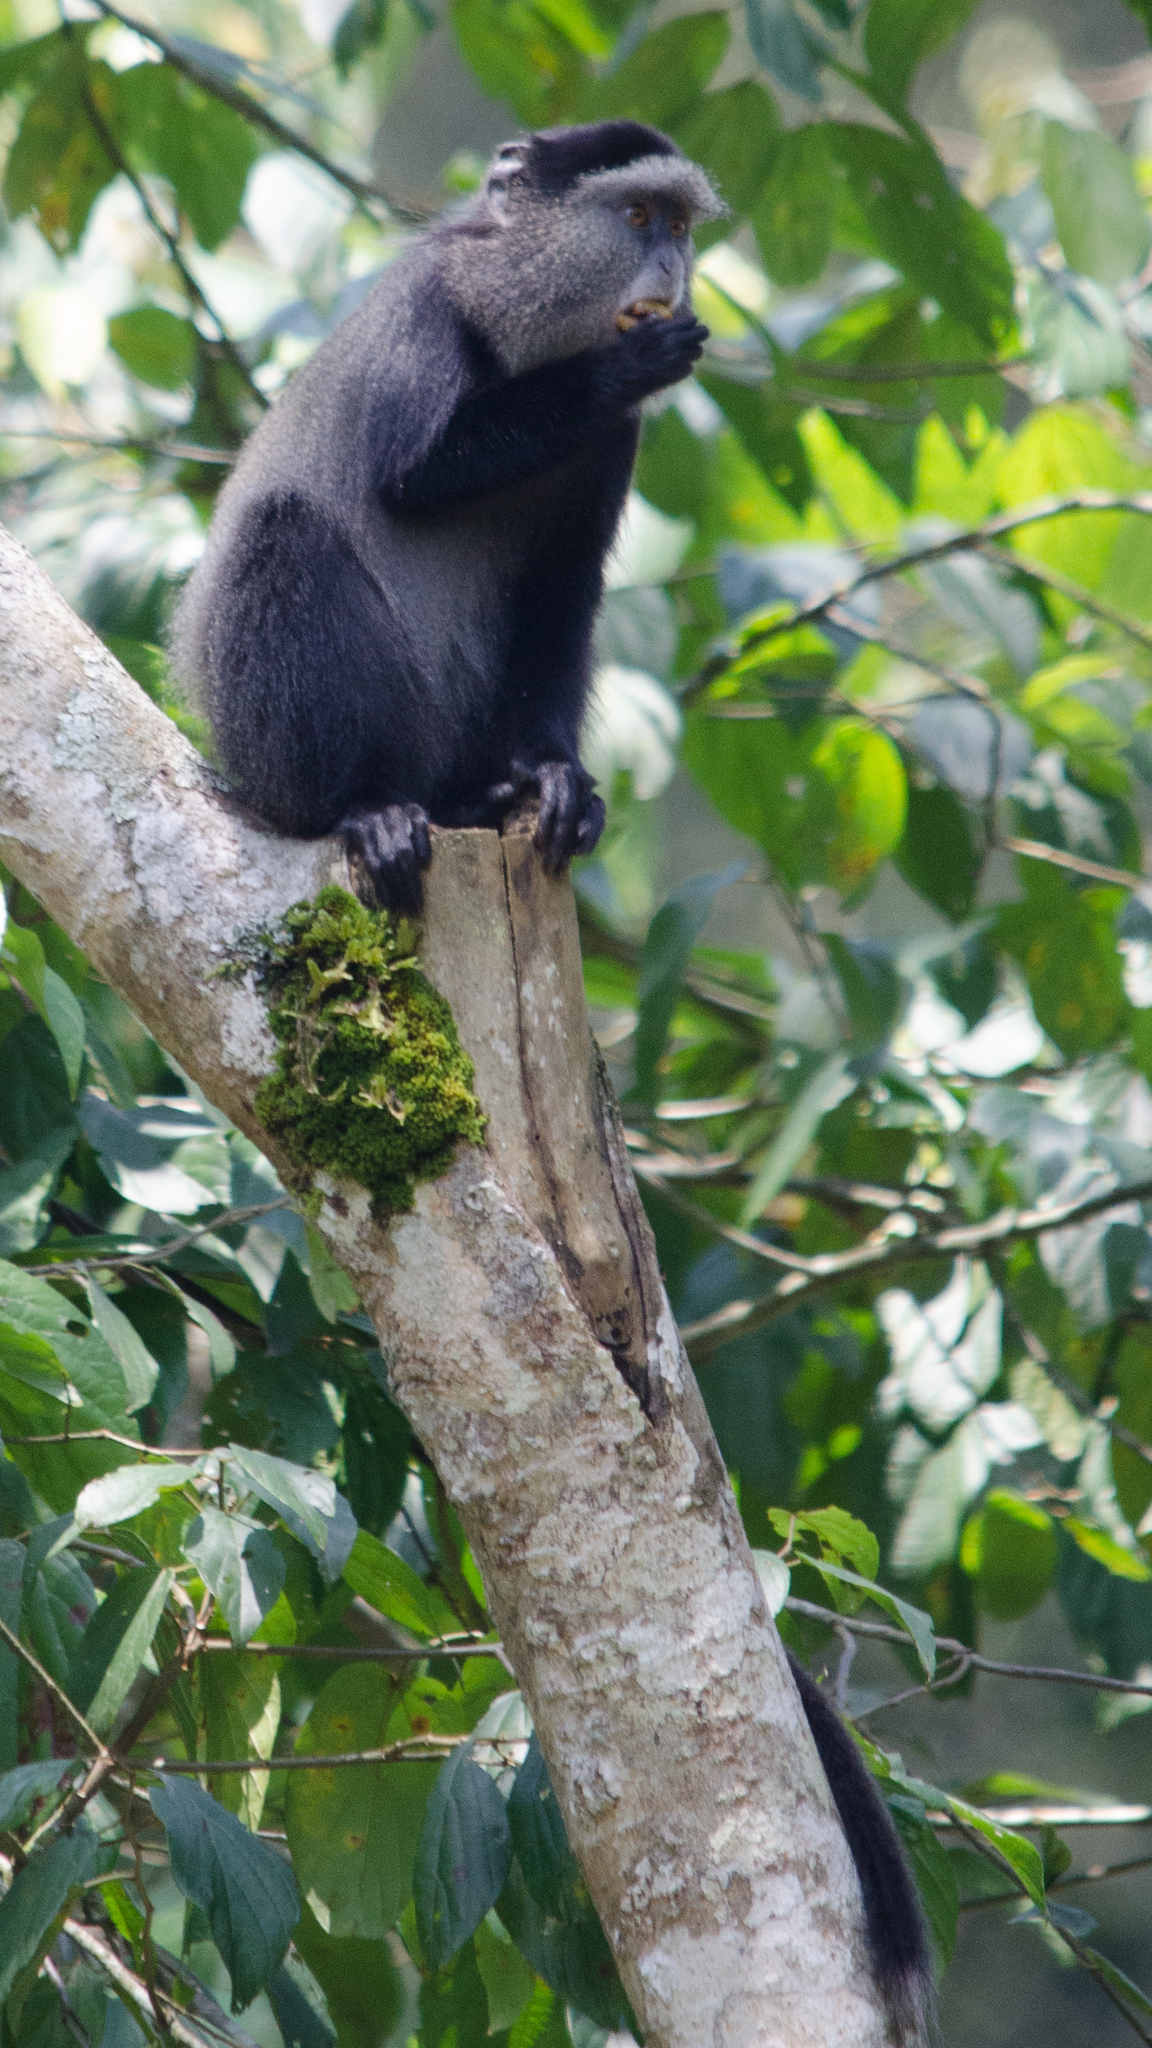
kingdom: Animalia
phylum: Chordata
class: Mammalia
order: Primates
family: Cercopithecidae
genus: Cercopithecus
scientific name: Cercopithecus mitis
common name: Blue monkey
